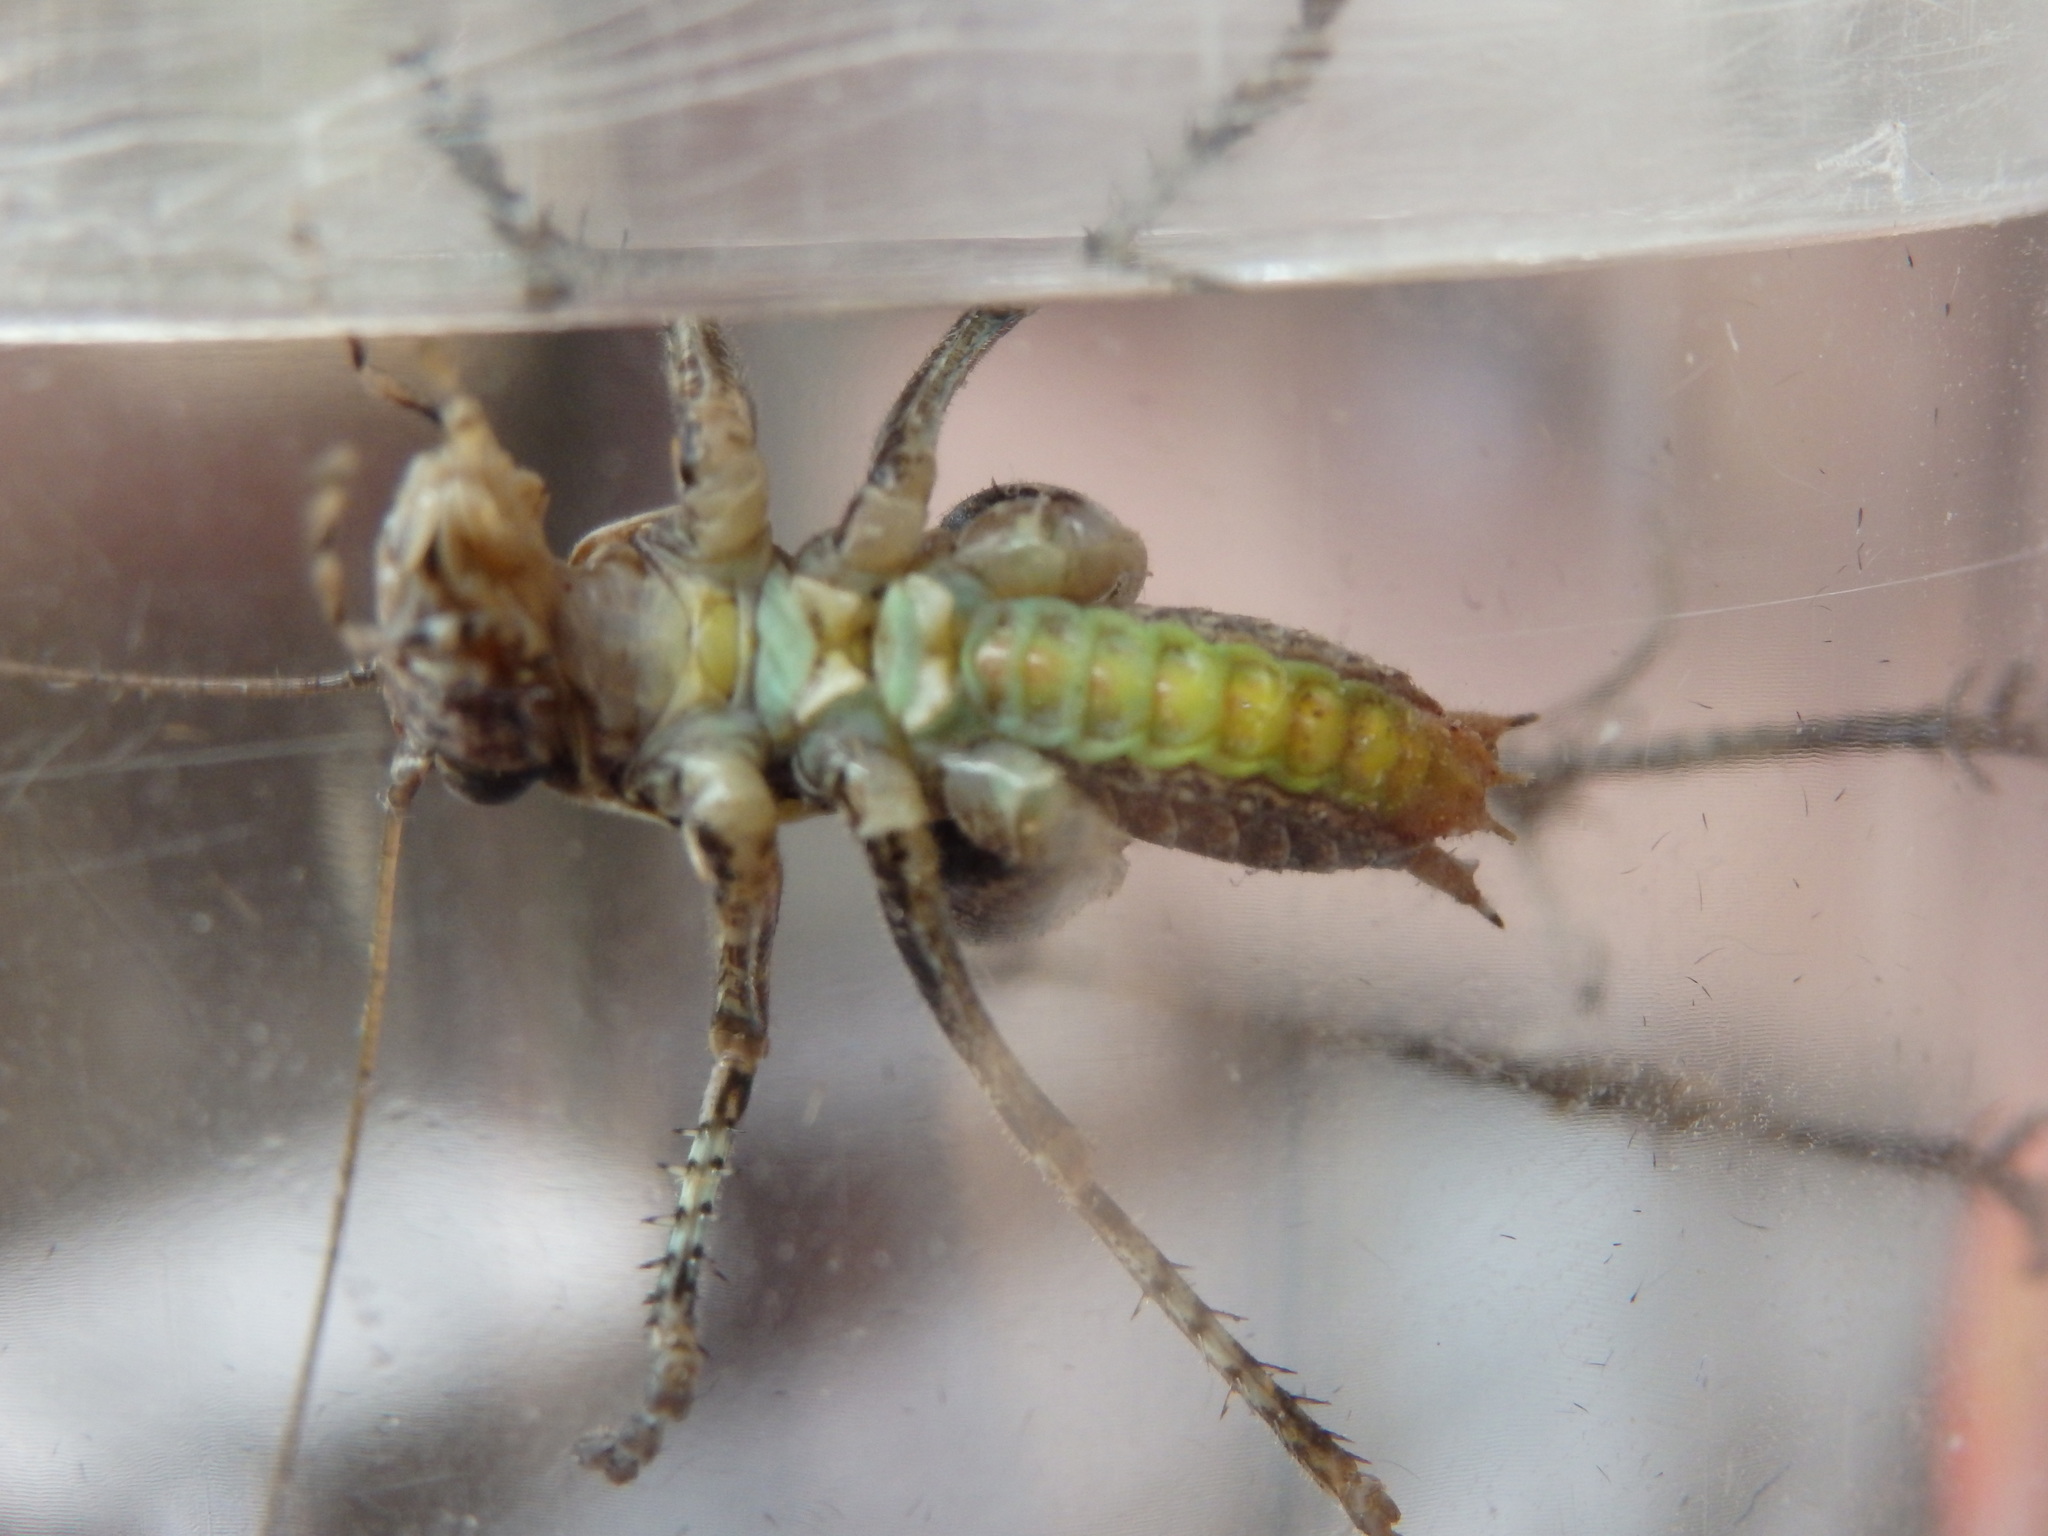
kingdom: Animalia
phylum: Arthropoda
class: Insecta
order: Orthoptera
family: Tettigoniidae
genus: Antaxius
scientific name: Antaxius spinibrachius
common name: Spiny-legged bush-cricket
